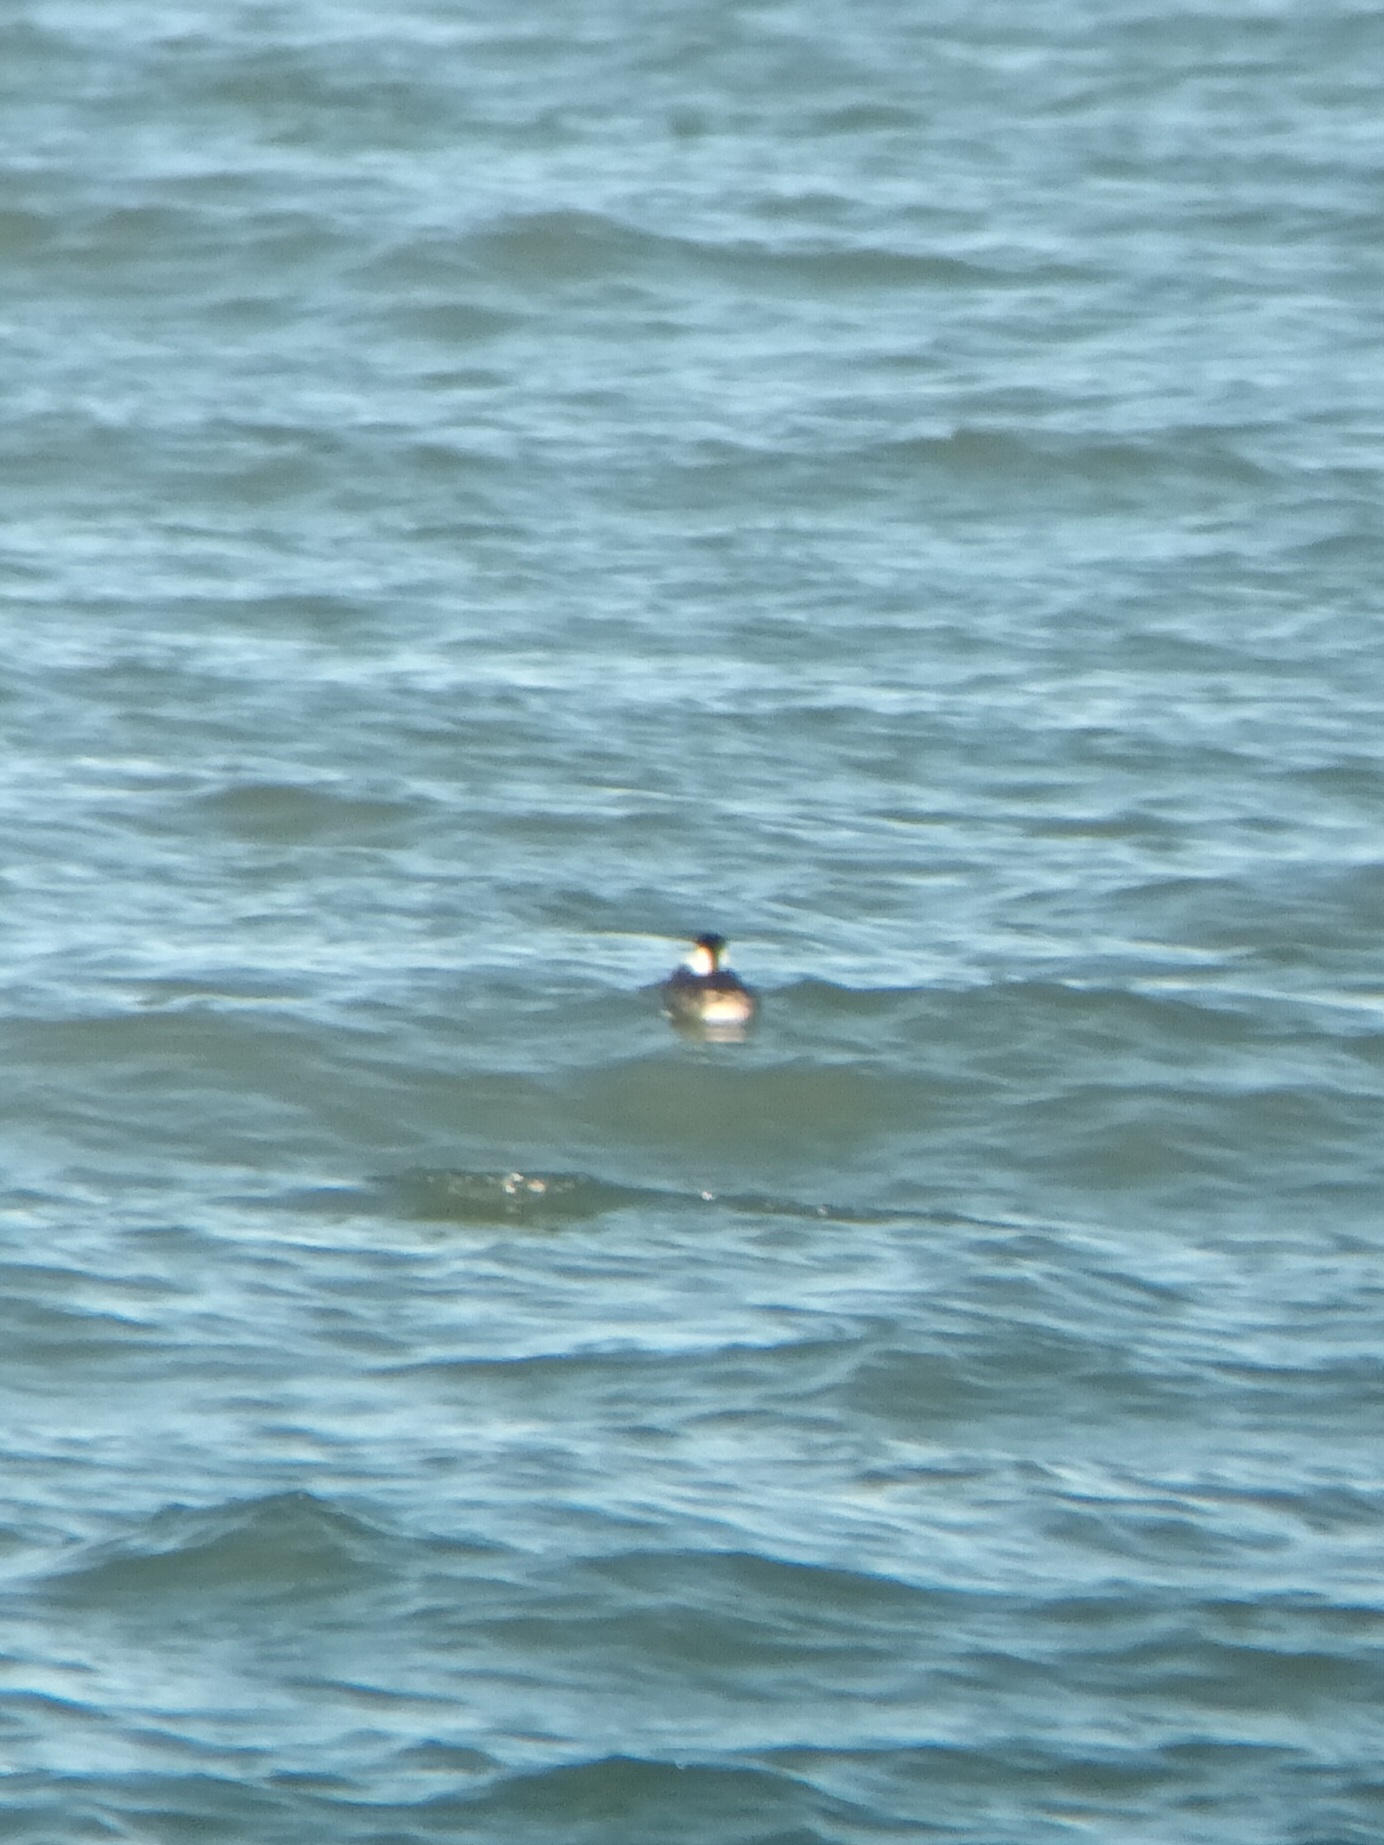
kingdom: Animalia
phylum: Chordata
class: Aves
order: Podicipediformes
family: Podicipedidae
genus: Aechmophorus
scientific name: Aechmophorus
